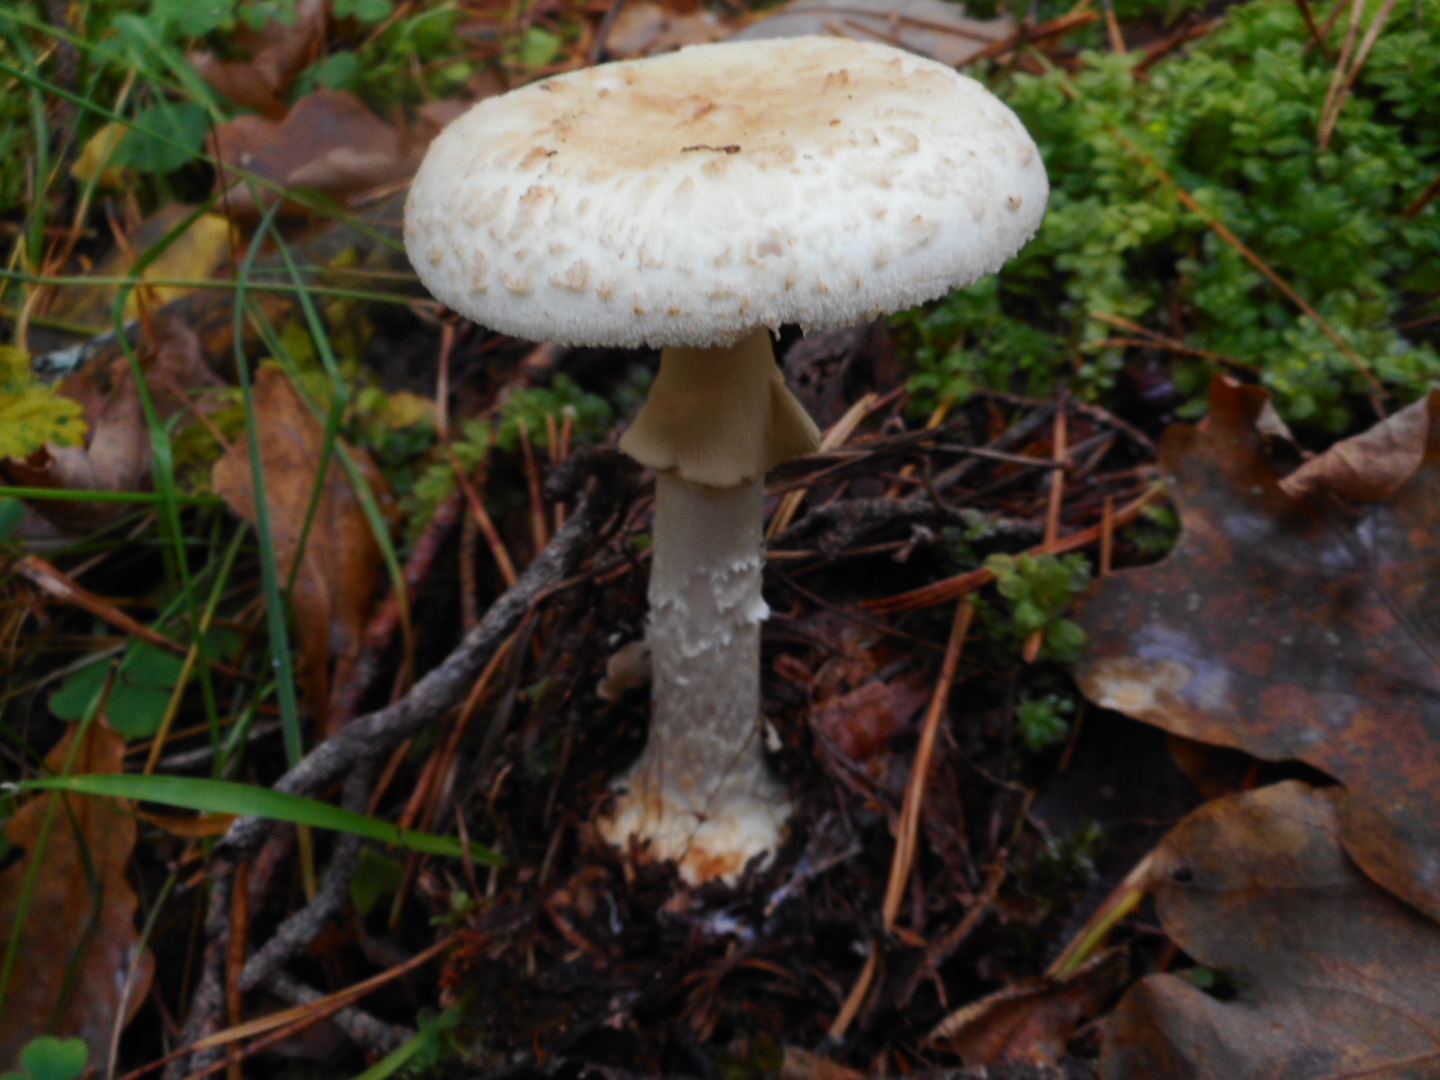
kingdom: Fungi
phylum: Basidiomycota
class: Agaricomycetes
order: Agaricales
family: Amanitaceae
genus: Amanita
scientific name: Amanita citrina
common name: False death-cap
